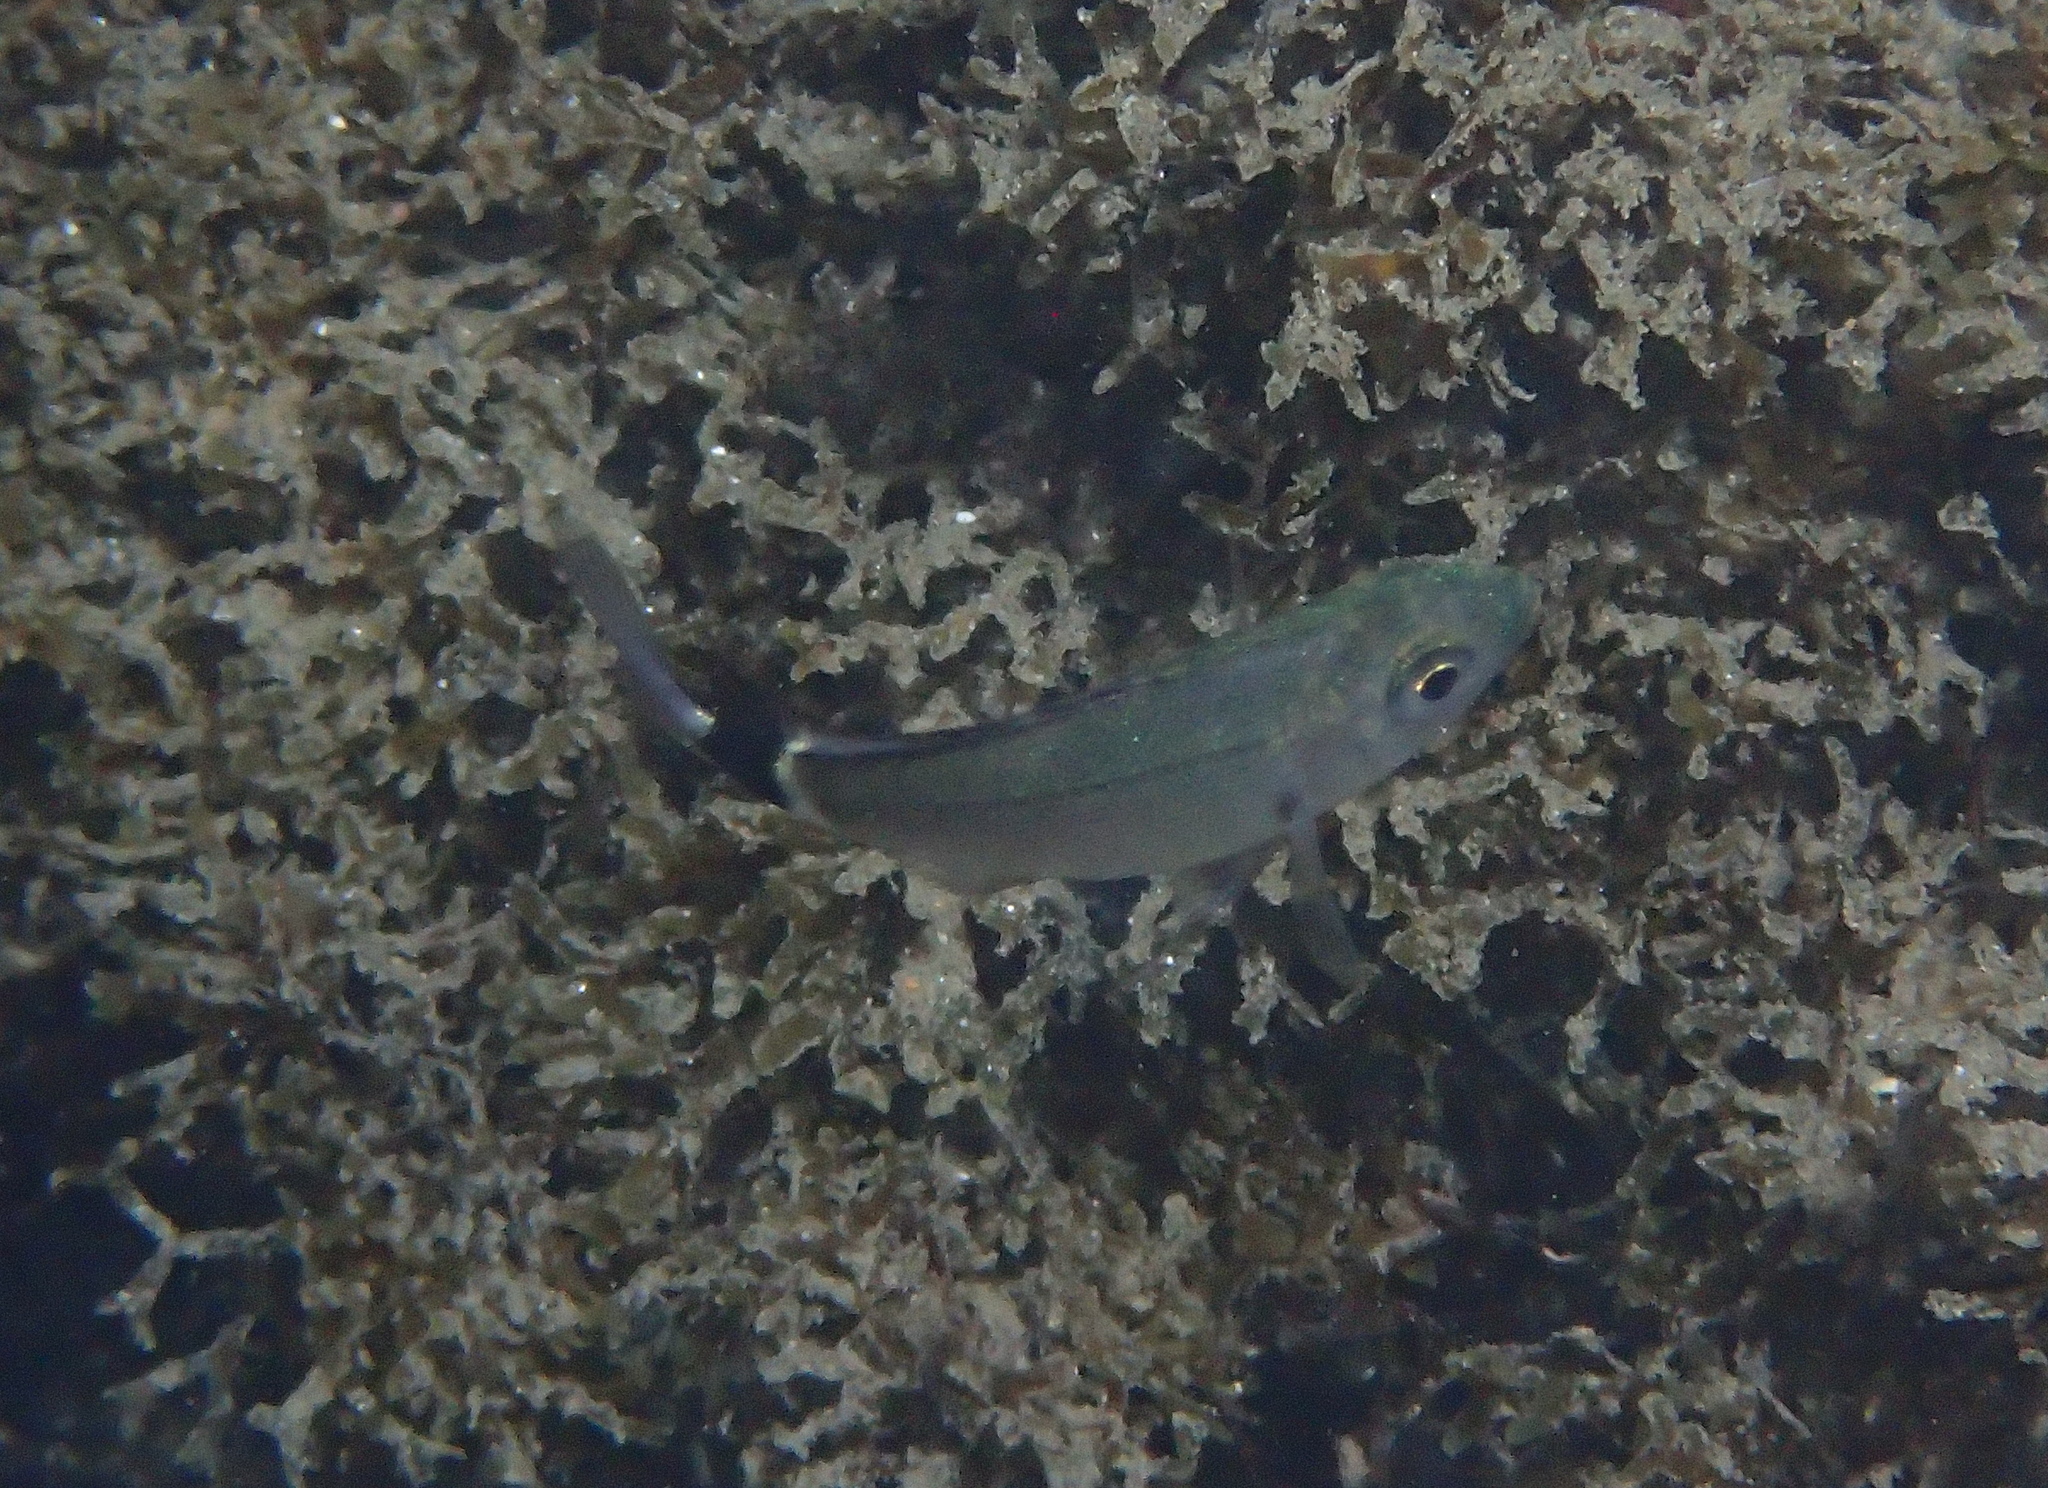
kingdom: Animalia
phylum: Chordata
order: Perciformes
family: Sparidae
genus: Oblada
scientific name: Oblada melanura
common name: Saddled seabream
